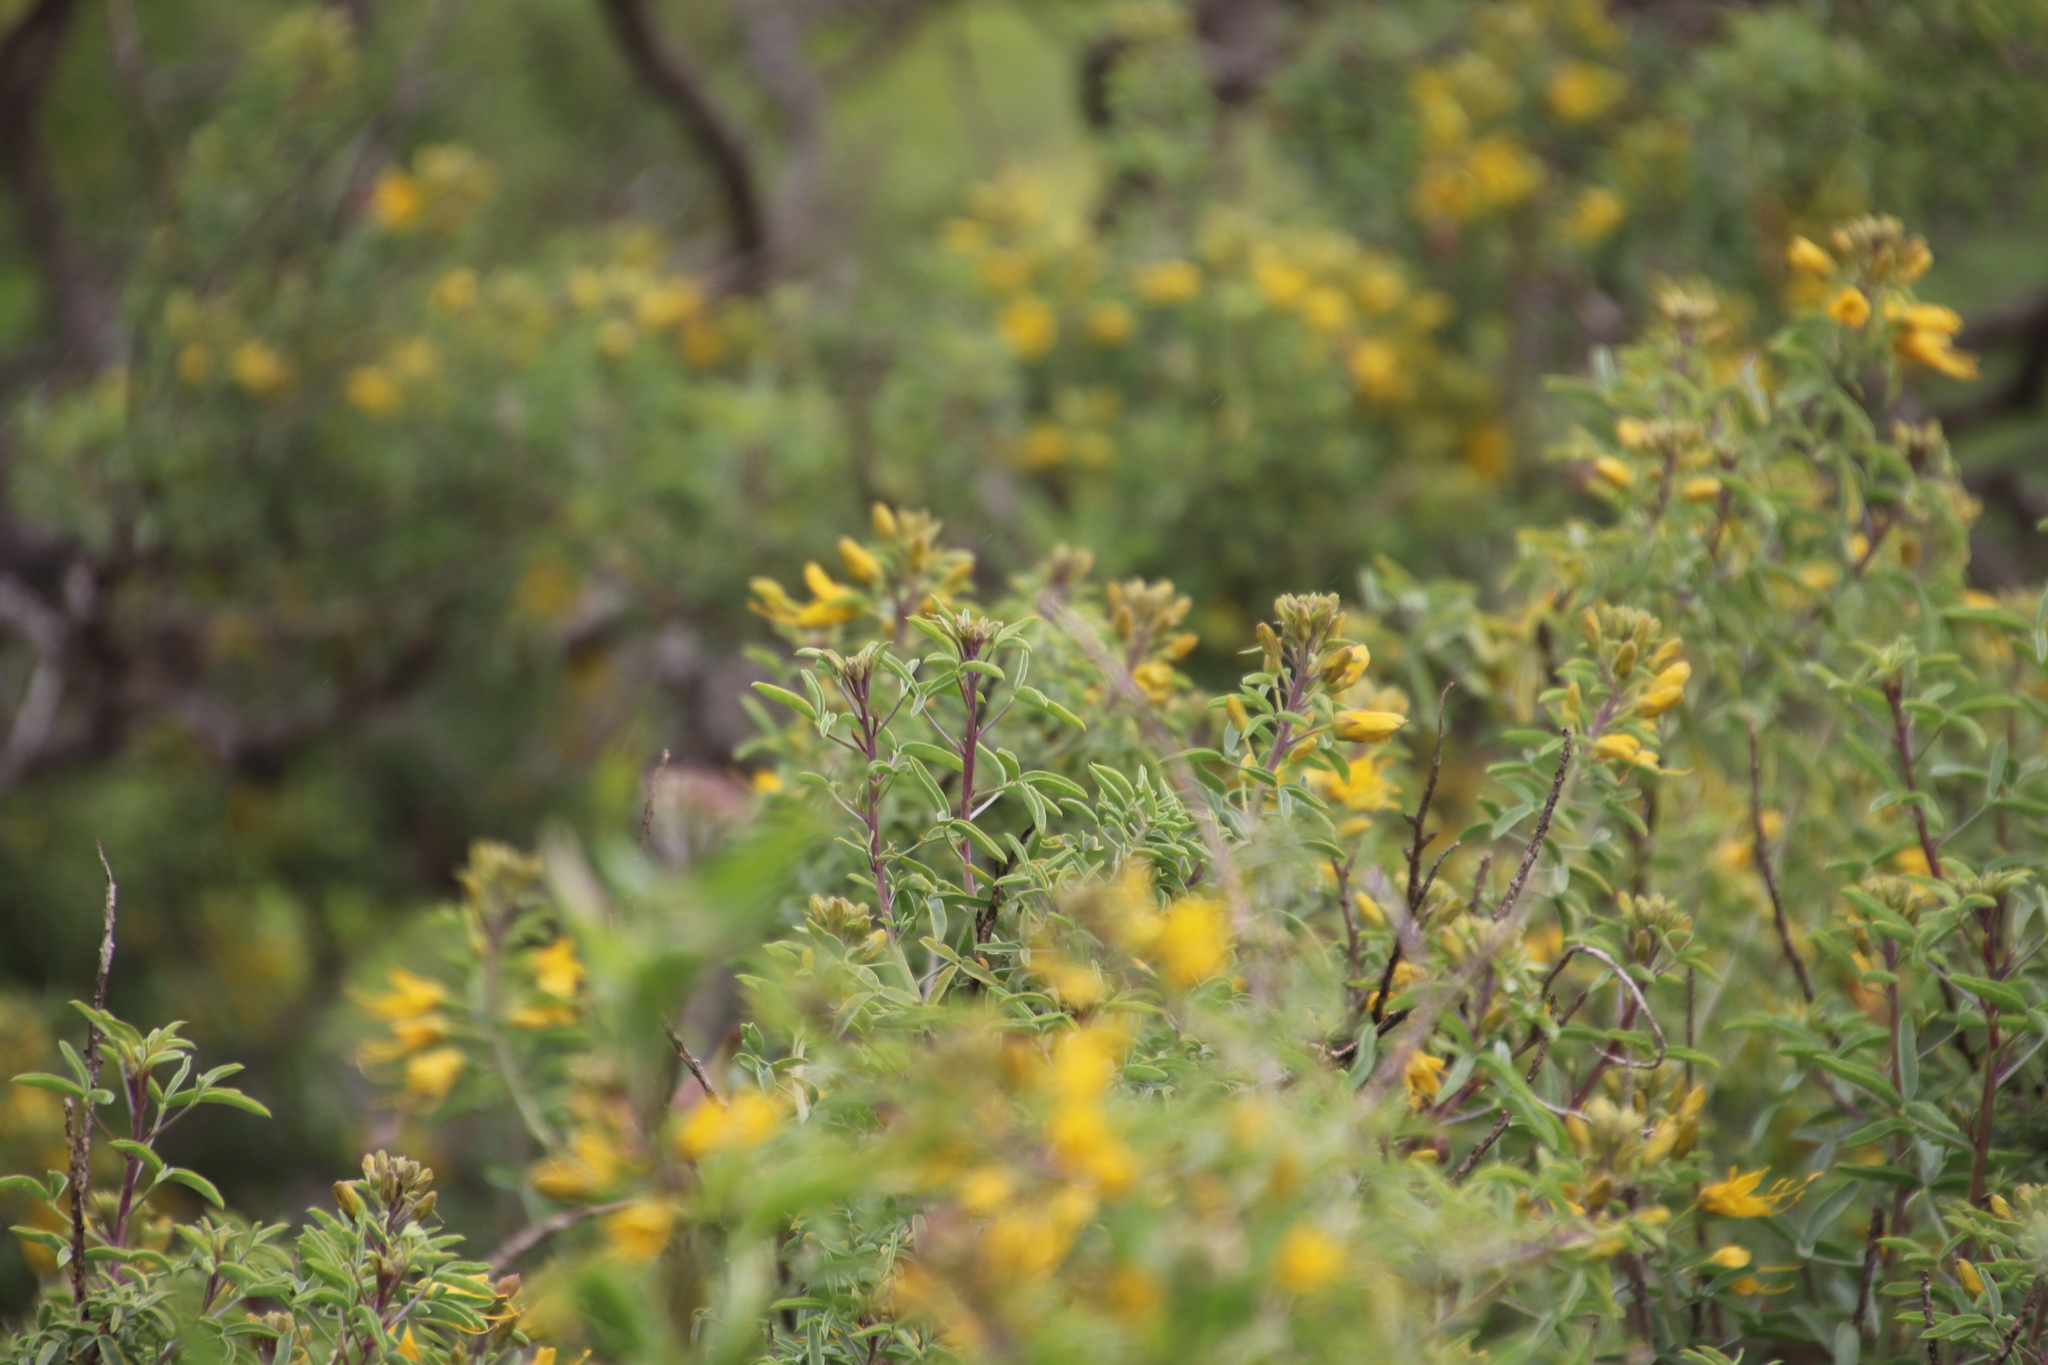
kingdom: Plantae
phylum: Tracheophyta
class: Magnoliopsida
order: Brassicales
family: Cleomaceae
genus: Cleomella
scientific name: Cleomella arborea
